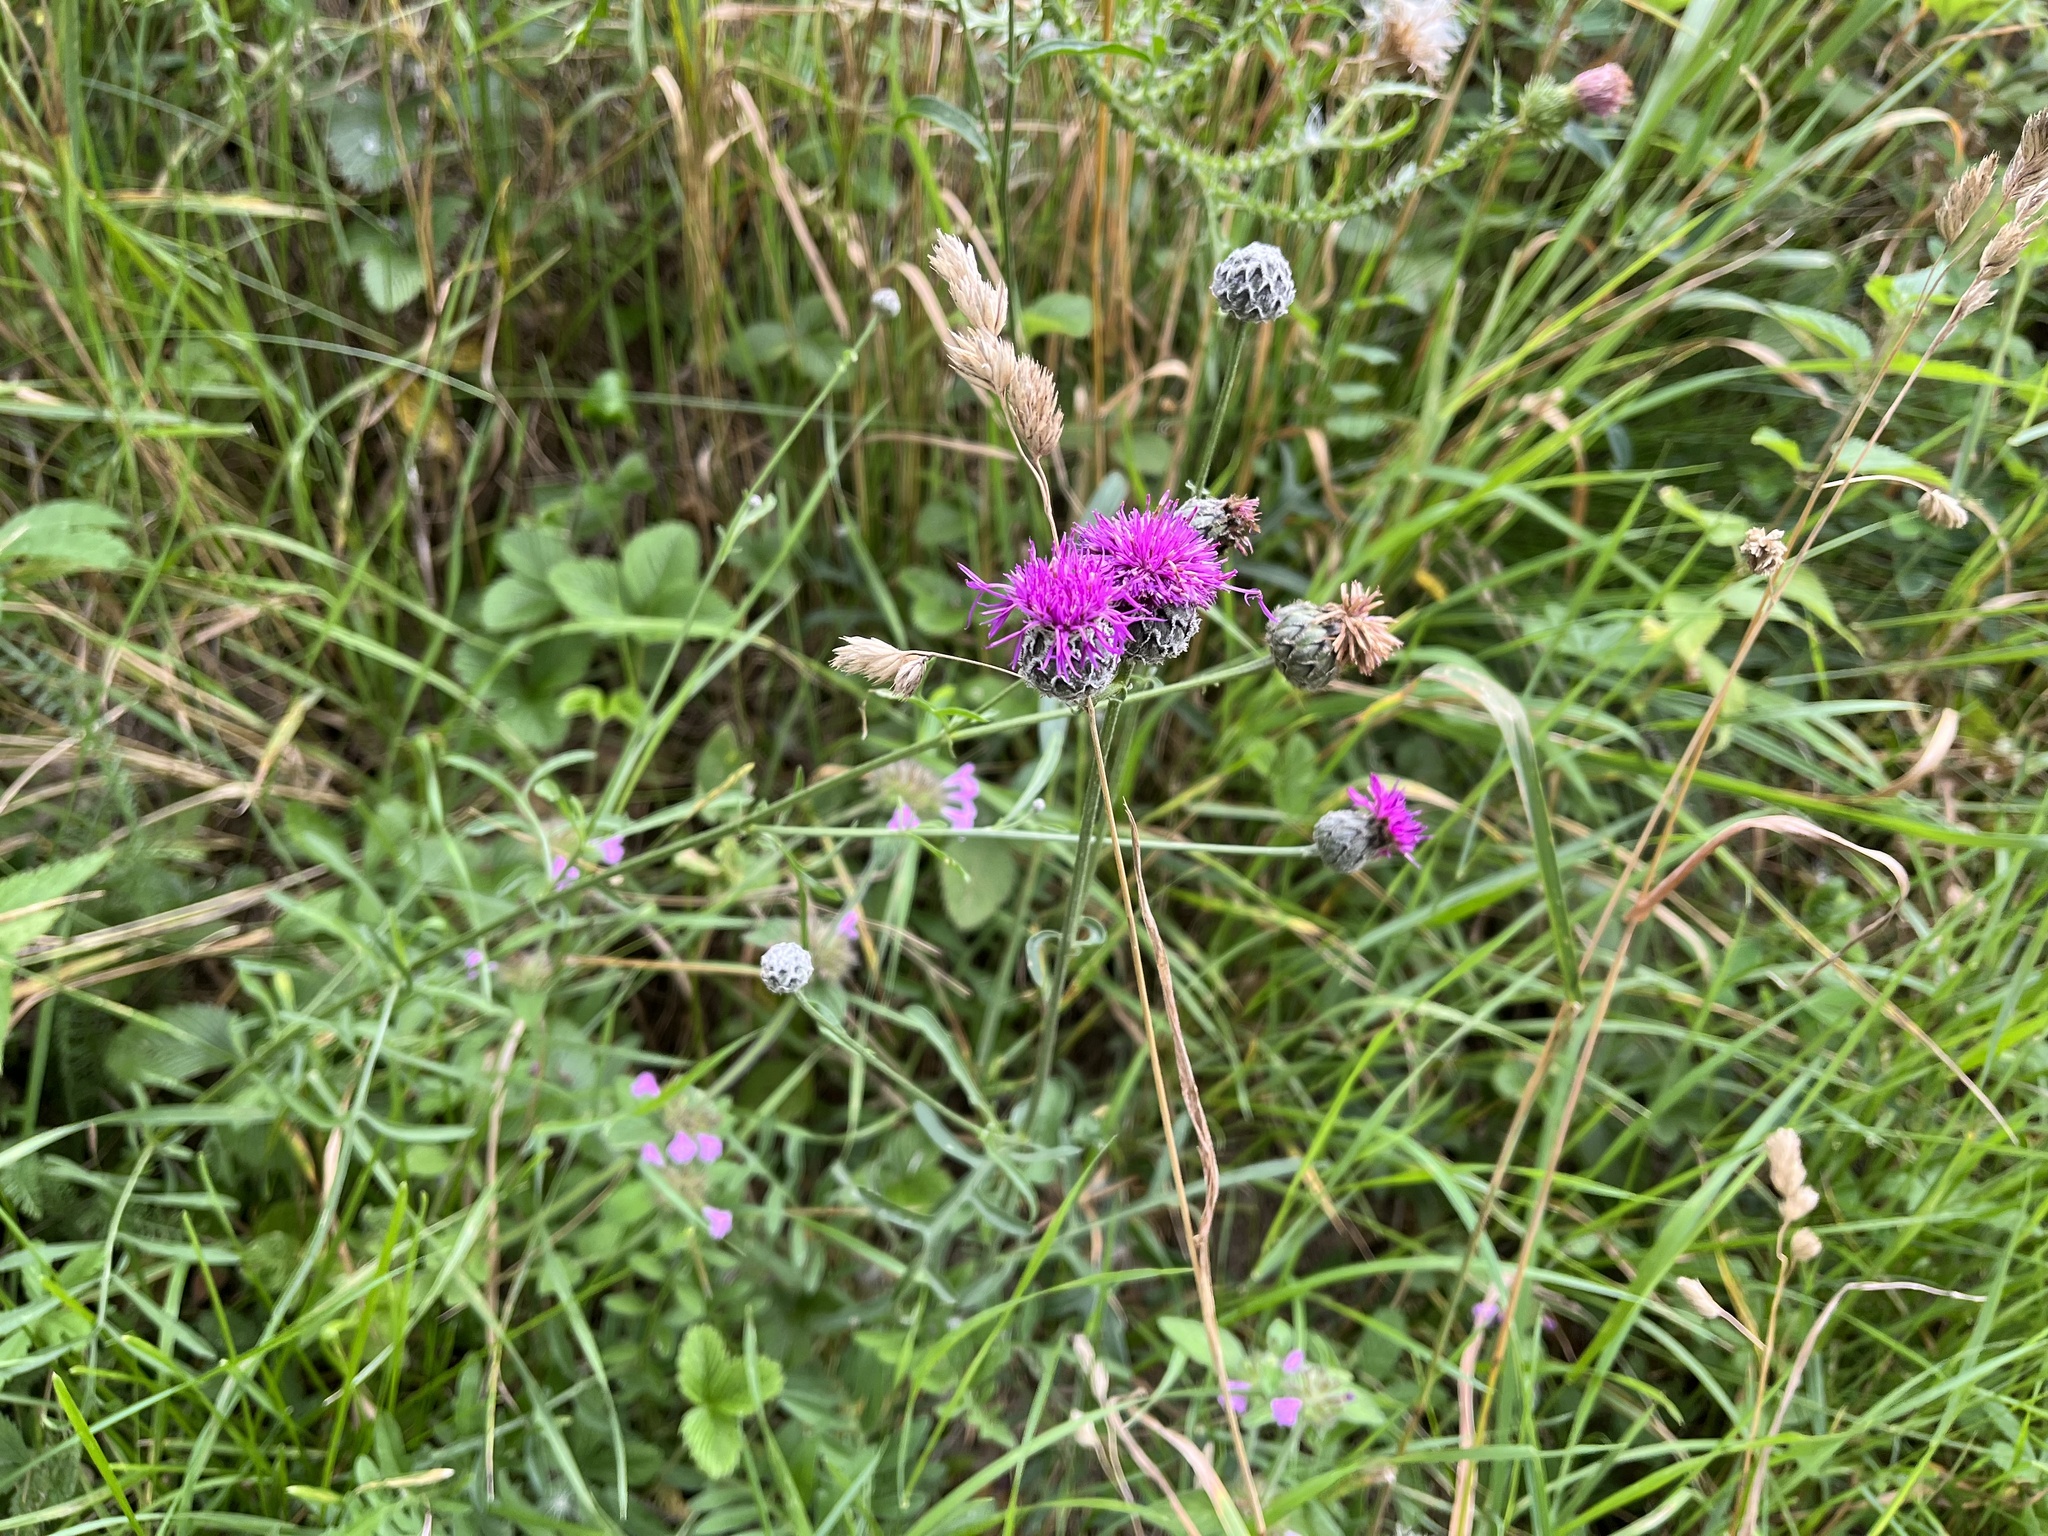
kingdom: Plantae
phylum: Tracheophyta
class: Magnoliopsida
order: Asterales
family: Asteraceae
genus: Centaurea
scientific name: Centaurea scabiosa
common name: Greater knapweed
